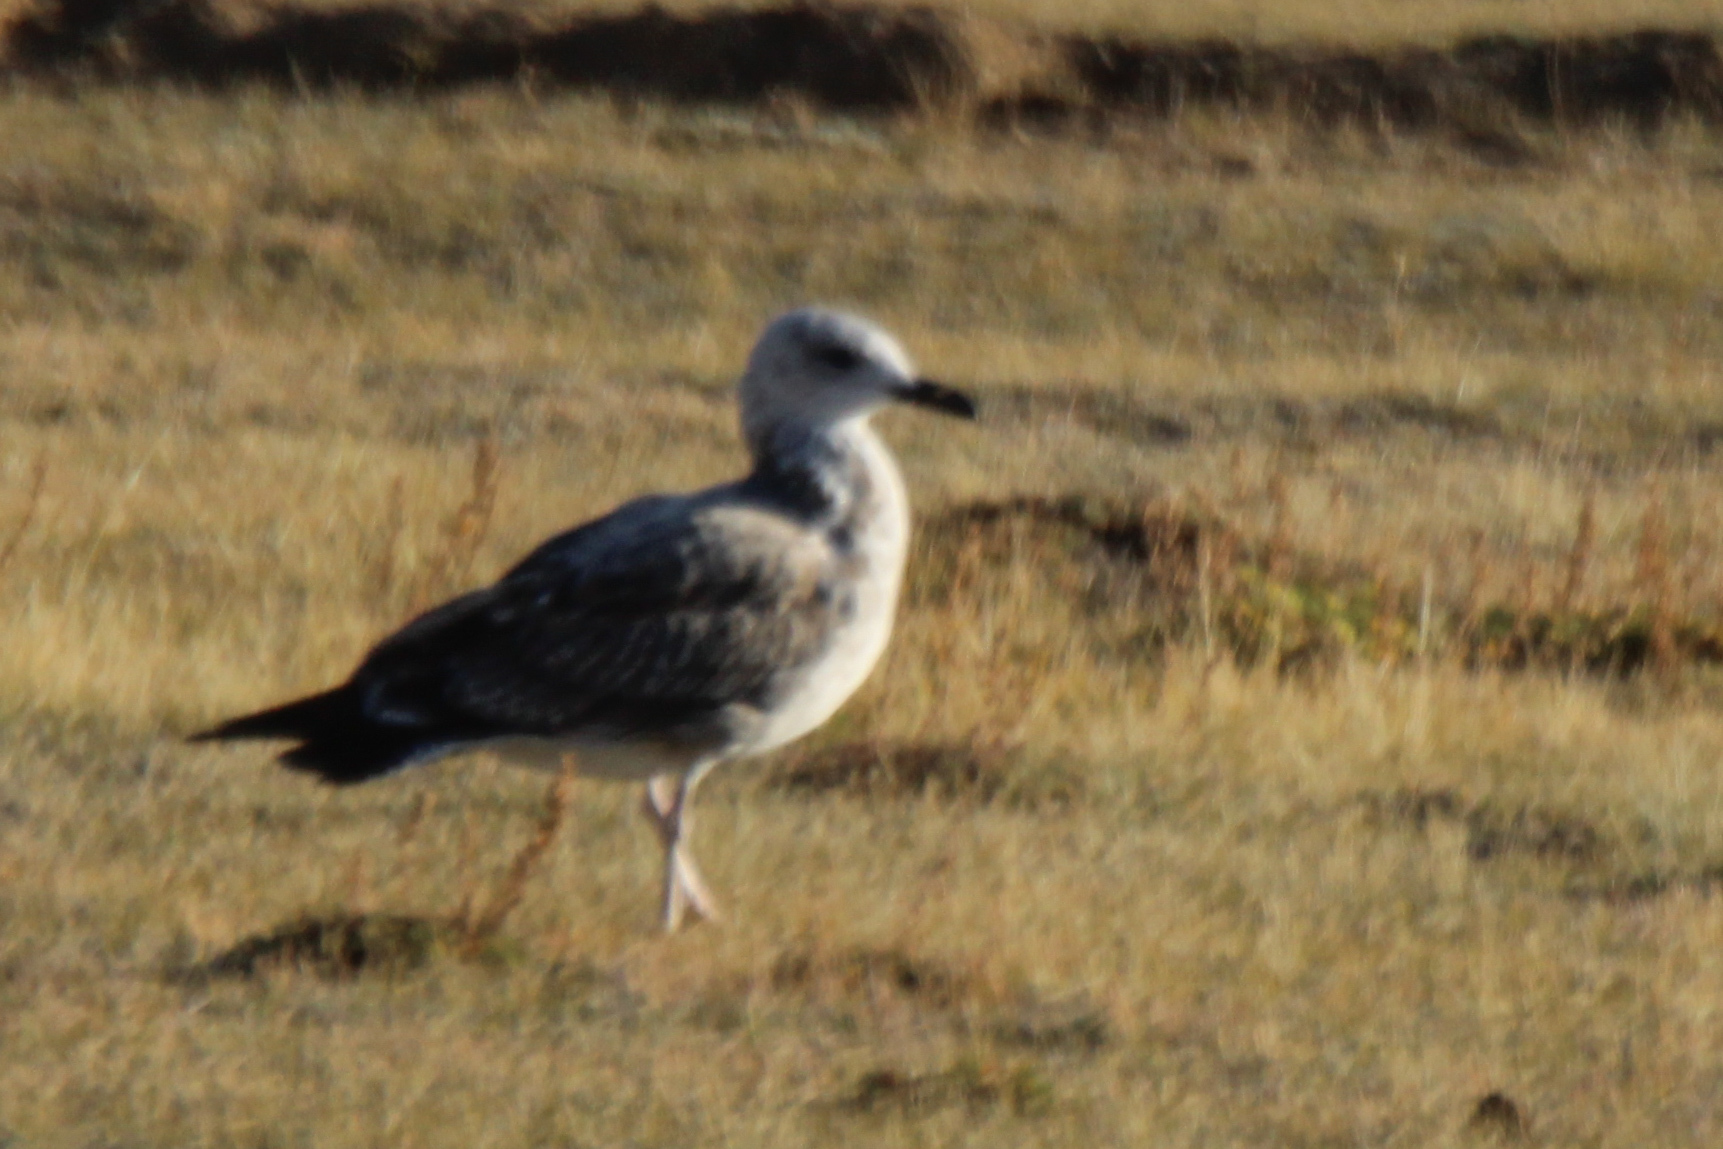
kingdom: Animalia
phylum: Chordata
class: Aves
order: Charadriiformes
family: Laridae
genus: Larus
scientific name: Larus vegae
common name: Vega gull
